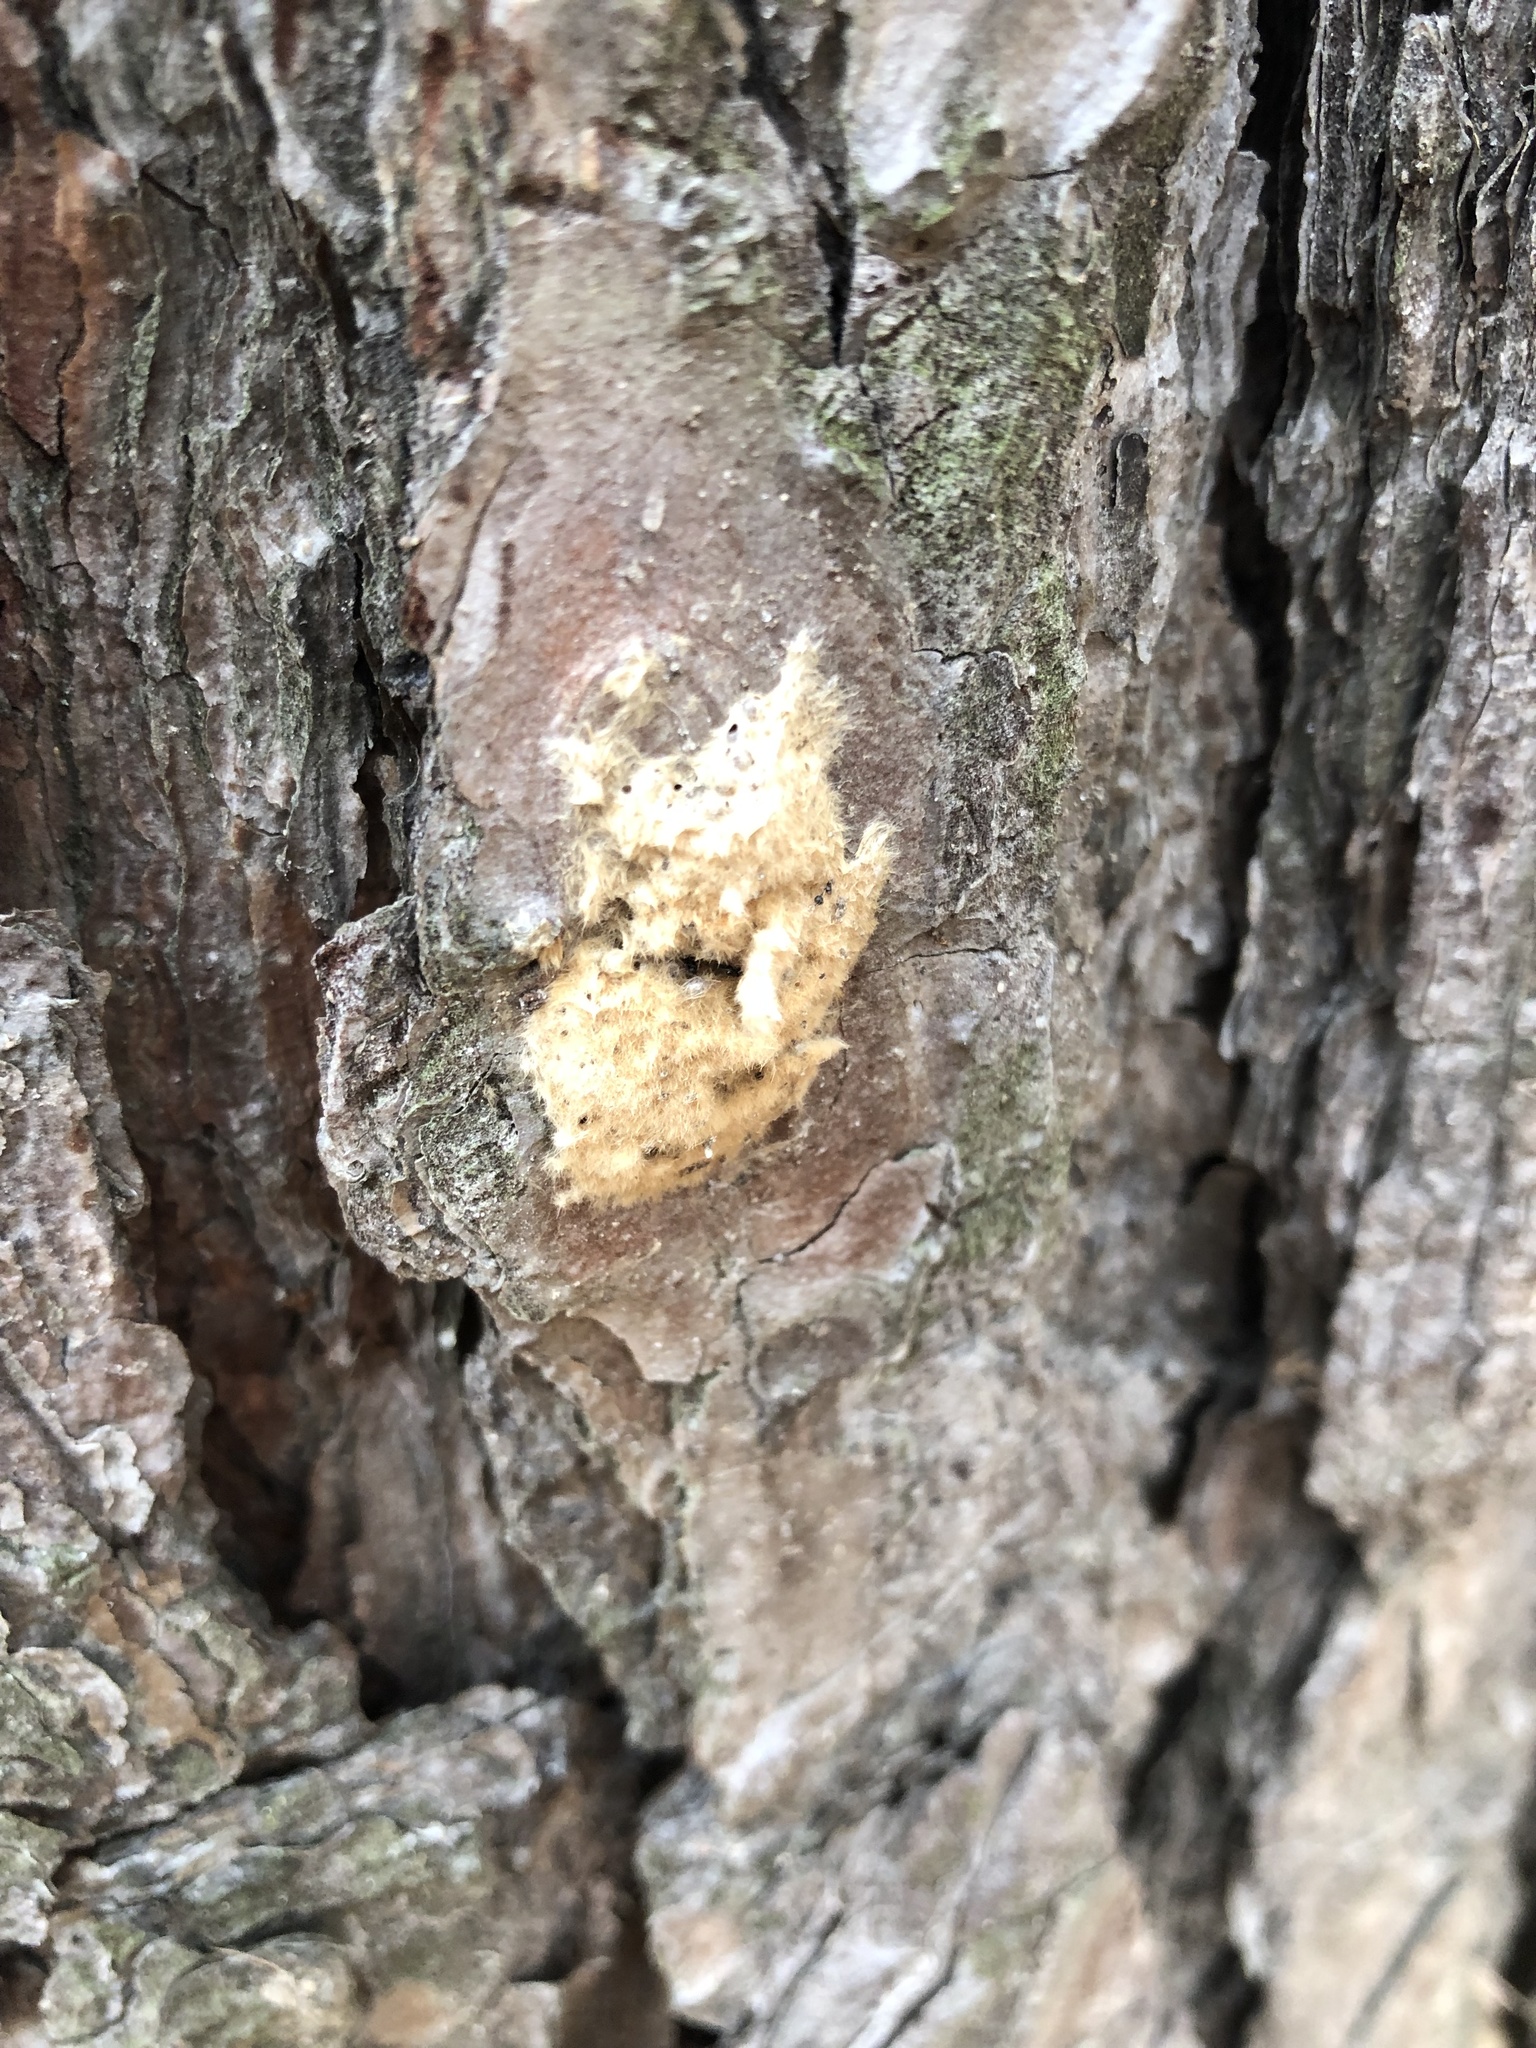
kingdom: Animalia
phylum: Arthropoda
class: Insecta
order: Lepidoptera
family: Erebidae
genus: Lymantria
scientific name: Lymantria dispar
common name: Gypsy moth
